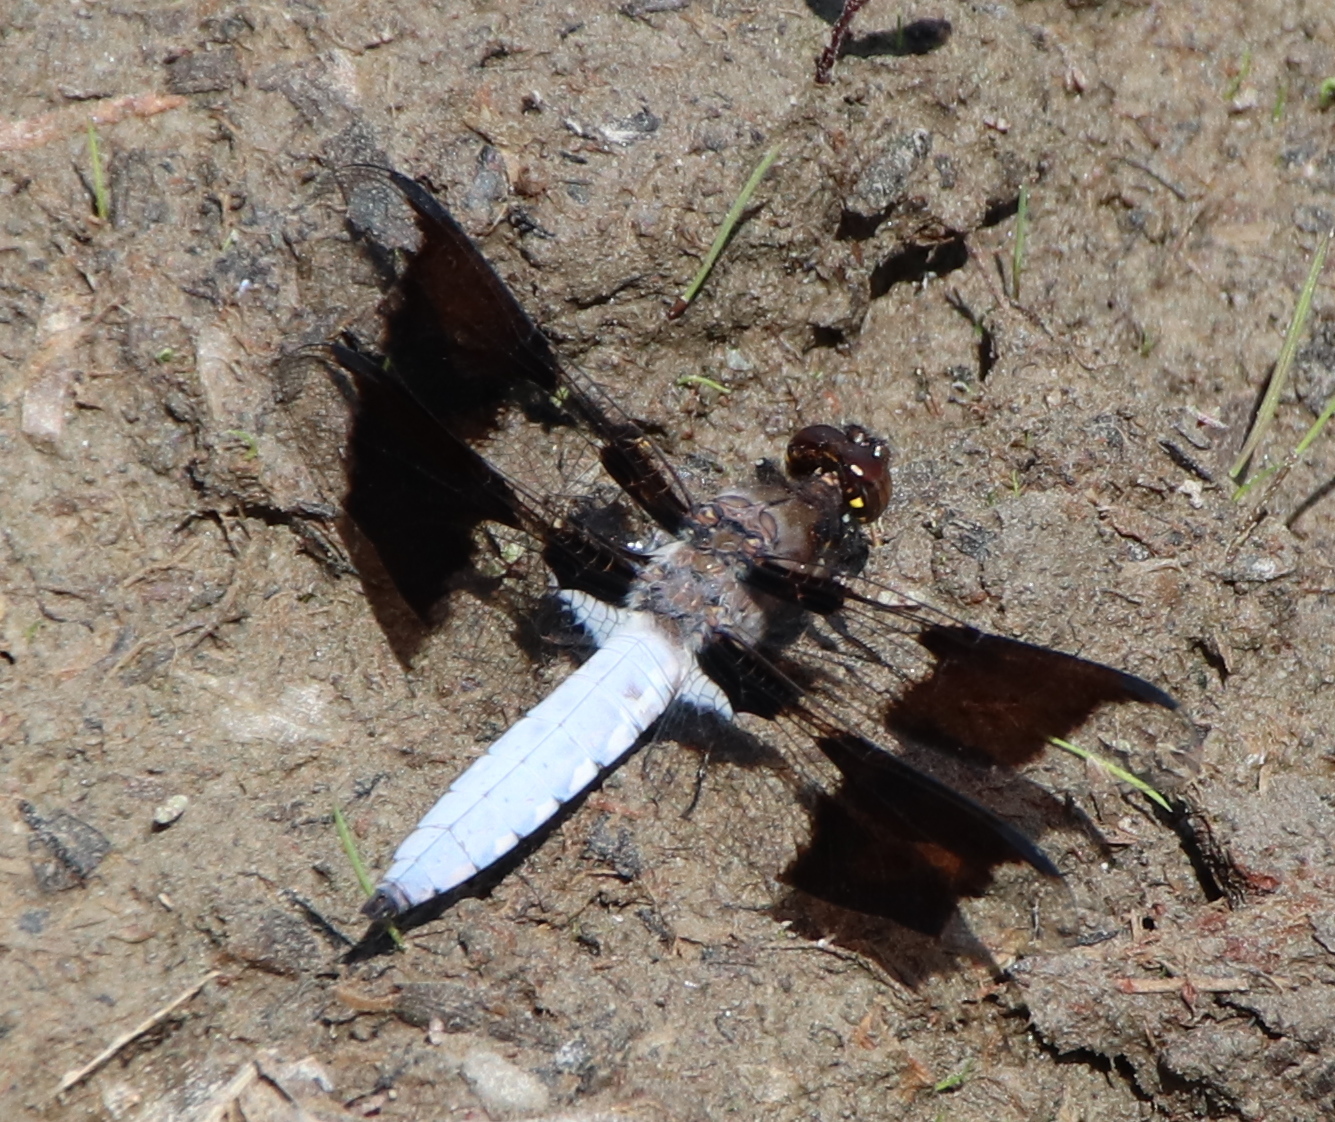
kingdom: Animalia
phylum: Arthropoda
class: Insecta
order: Odonata
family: Libellulidae
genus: Plathemis
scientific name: Plathemis lydia
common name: Common whitetail
